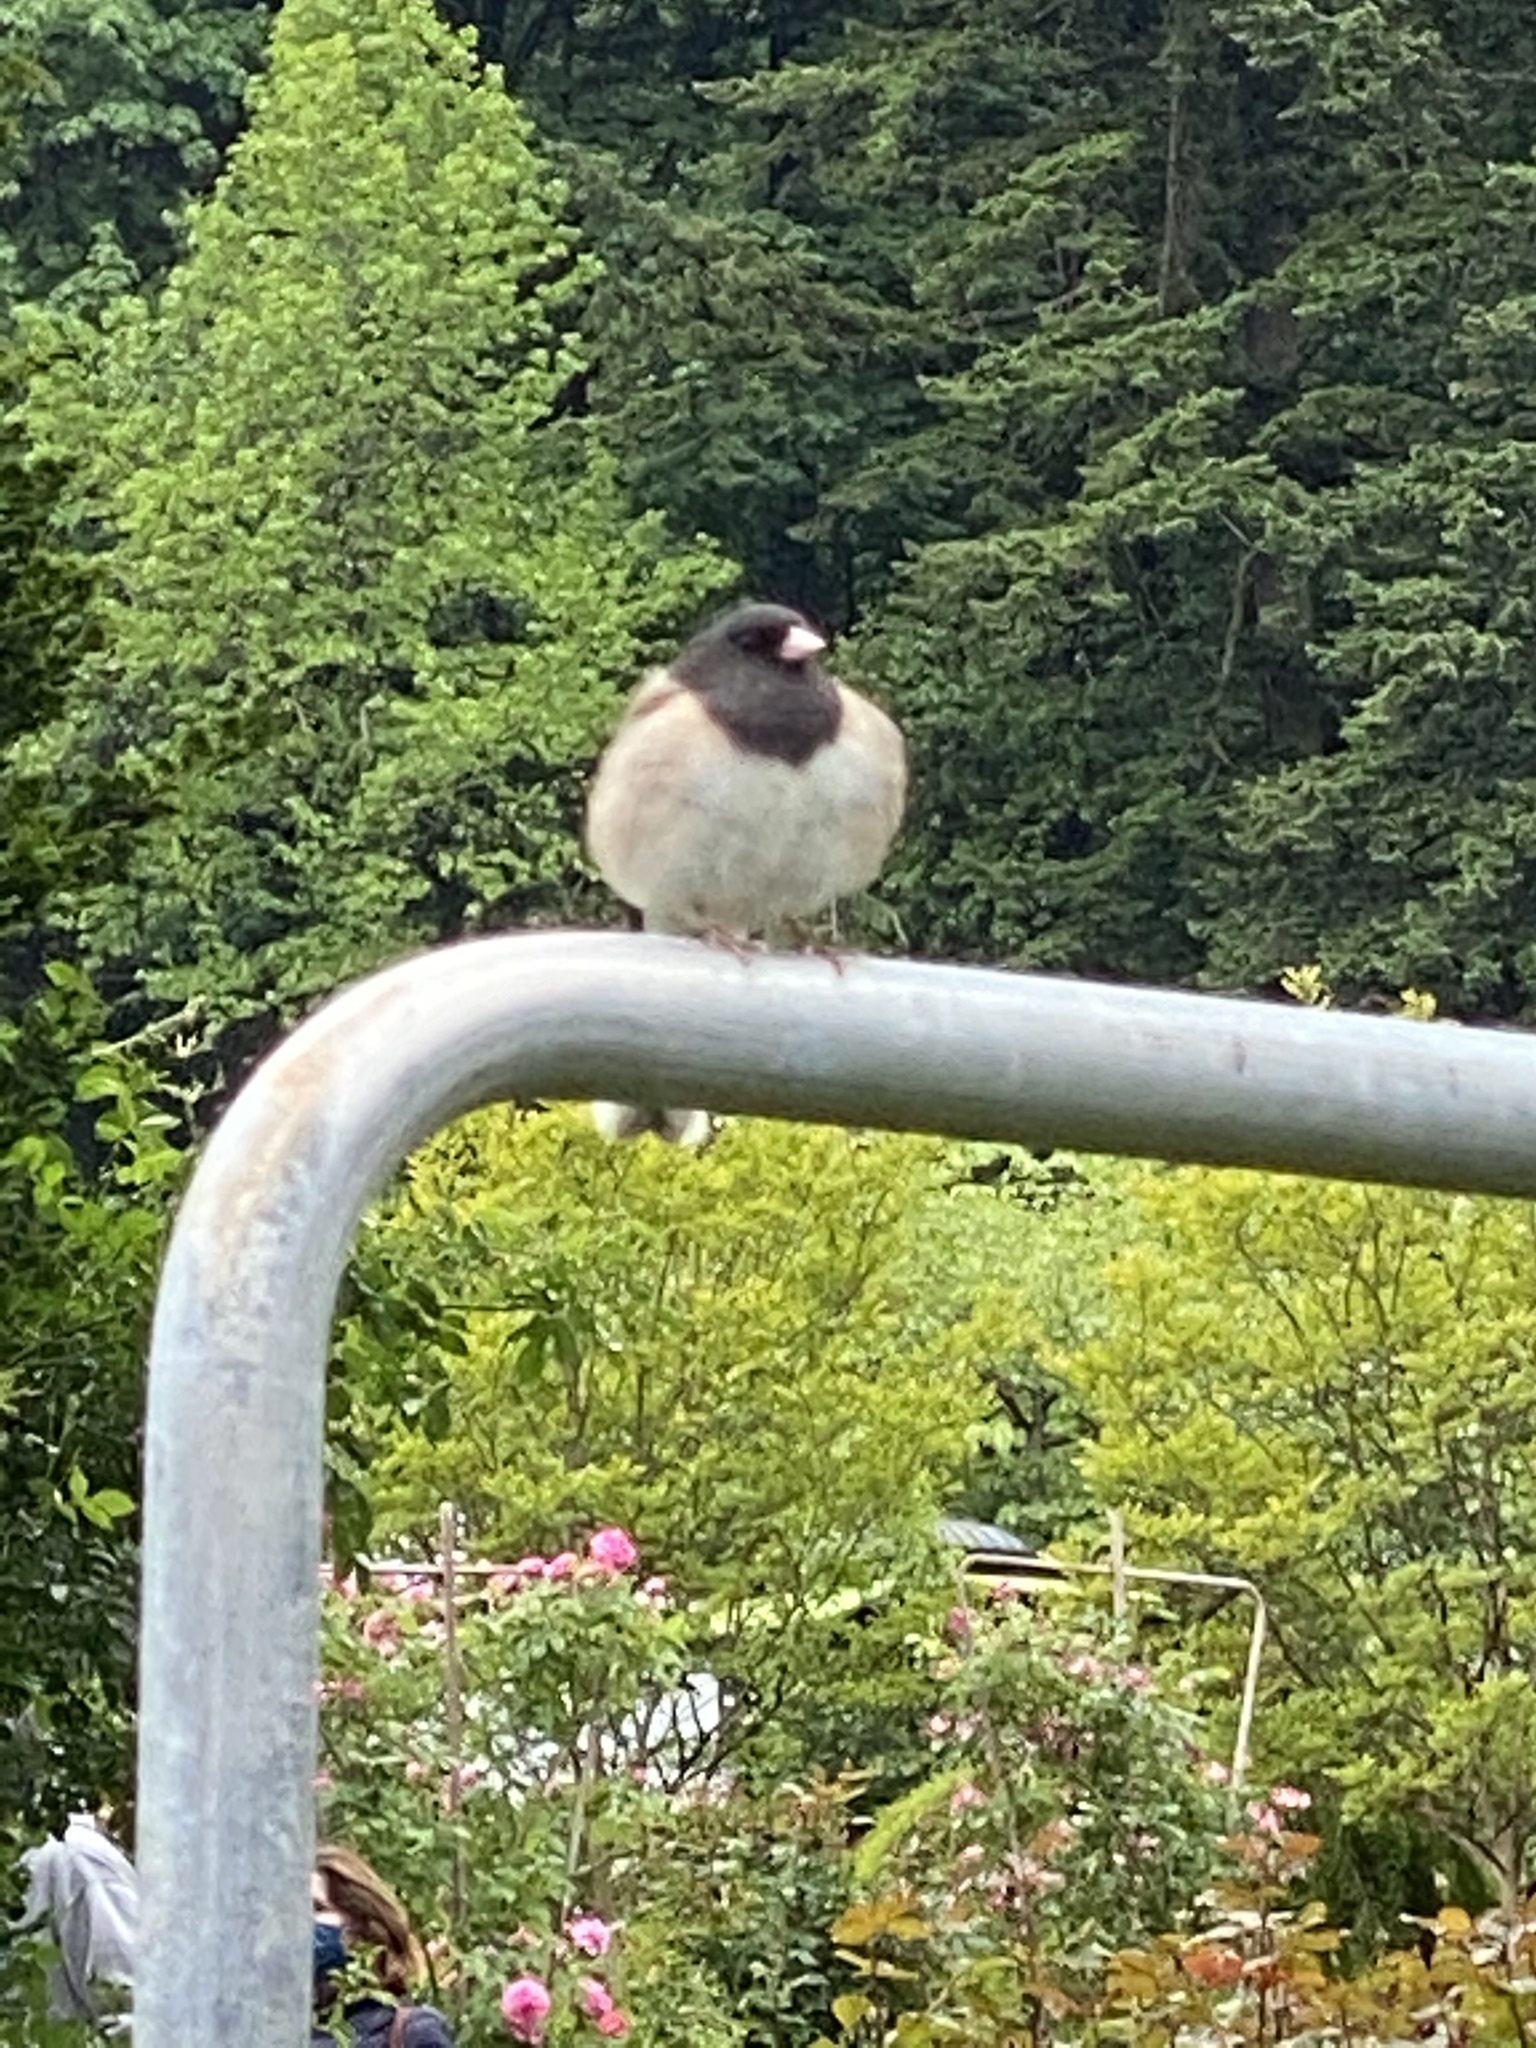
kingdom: Animalia
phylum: Chordata
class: Aves
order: Passeriformes
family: Passerellidae
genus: Junco
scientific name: Junco hyemalis
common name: Dark-eyed junco
